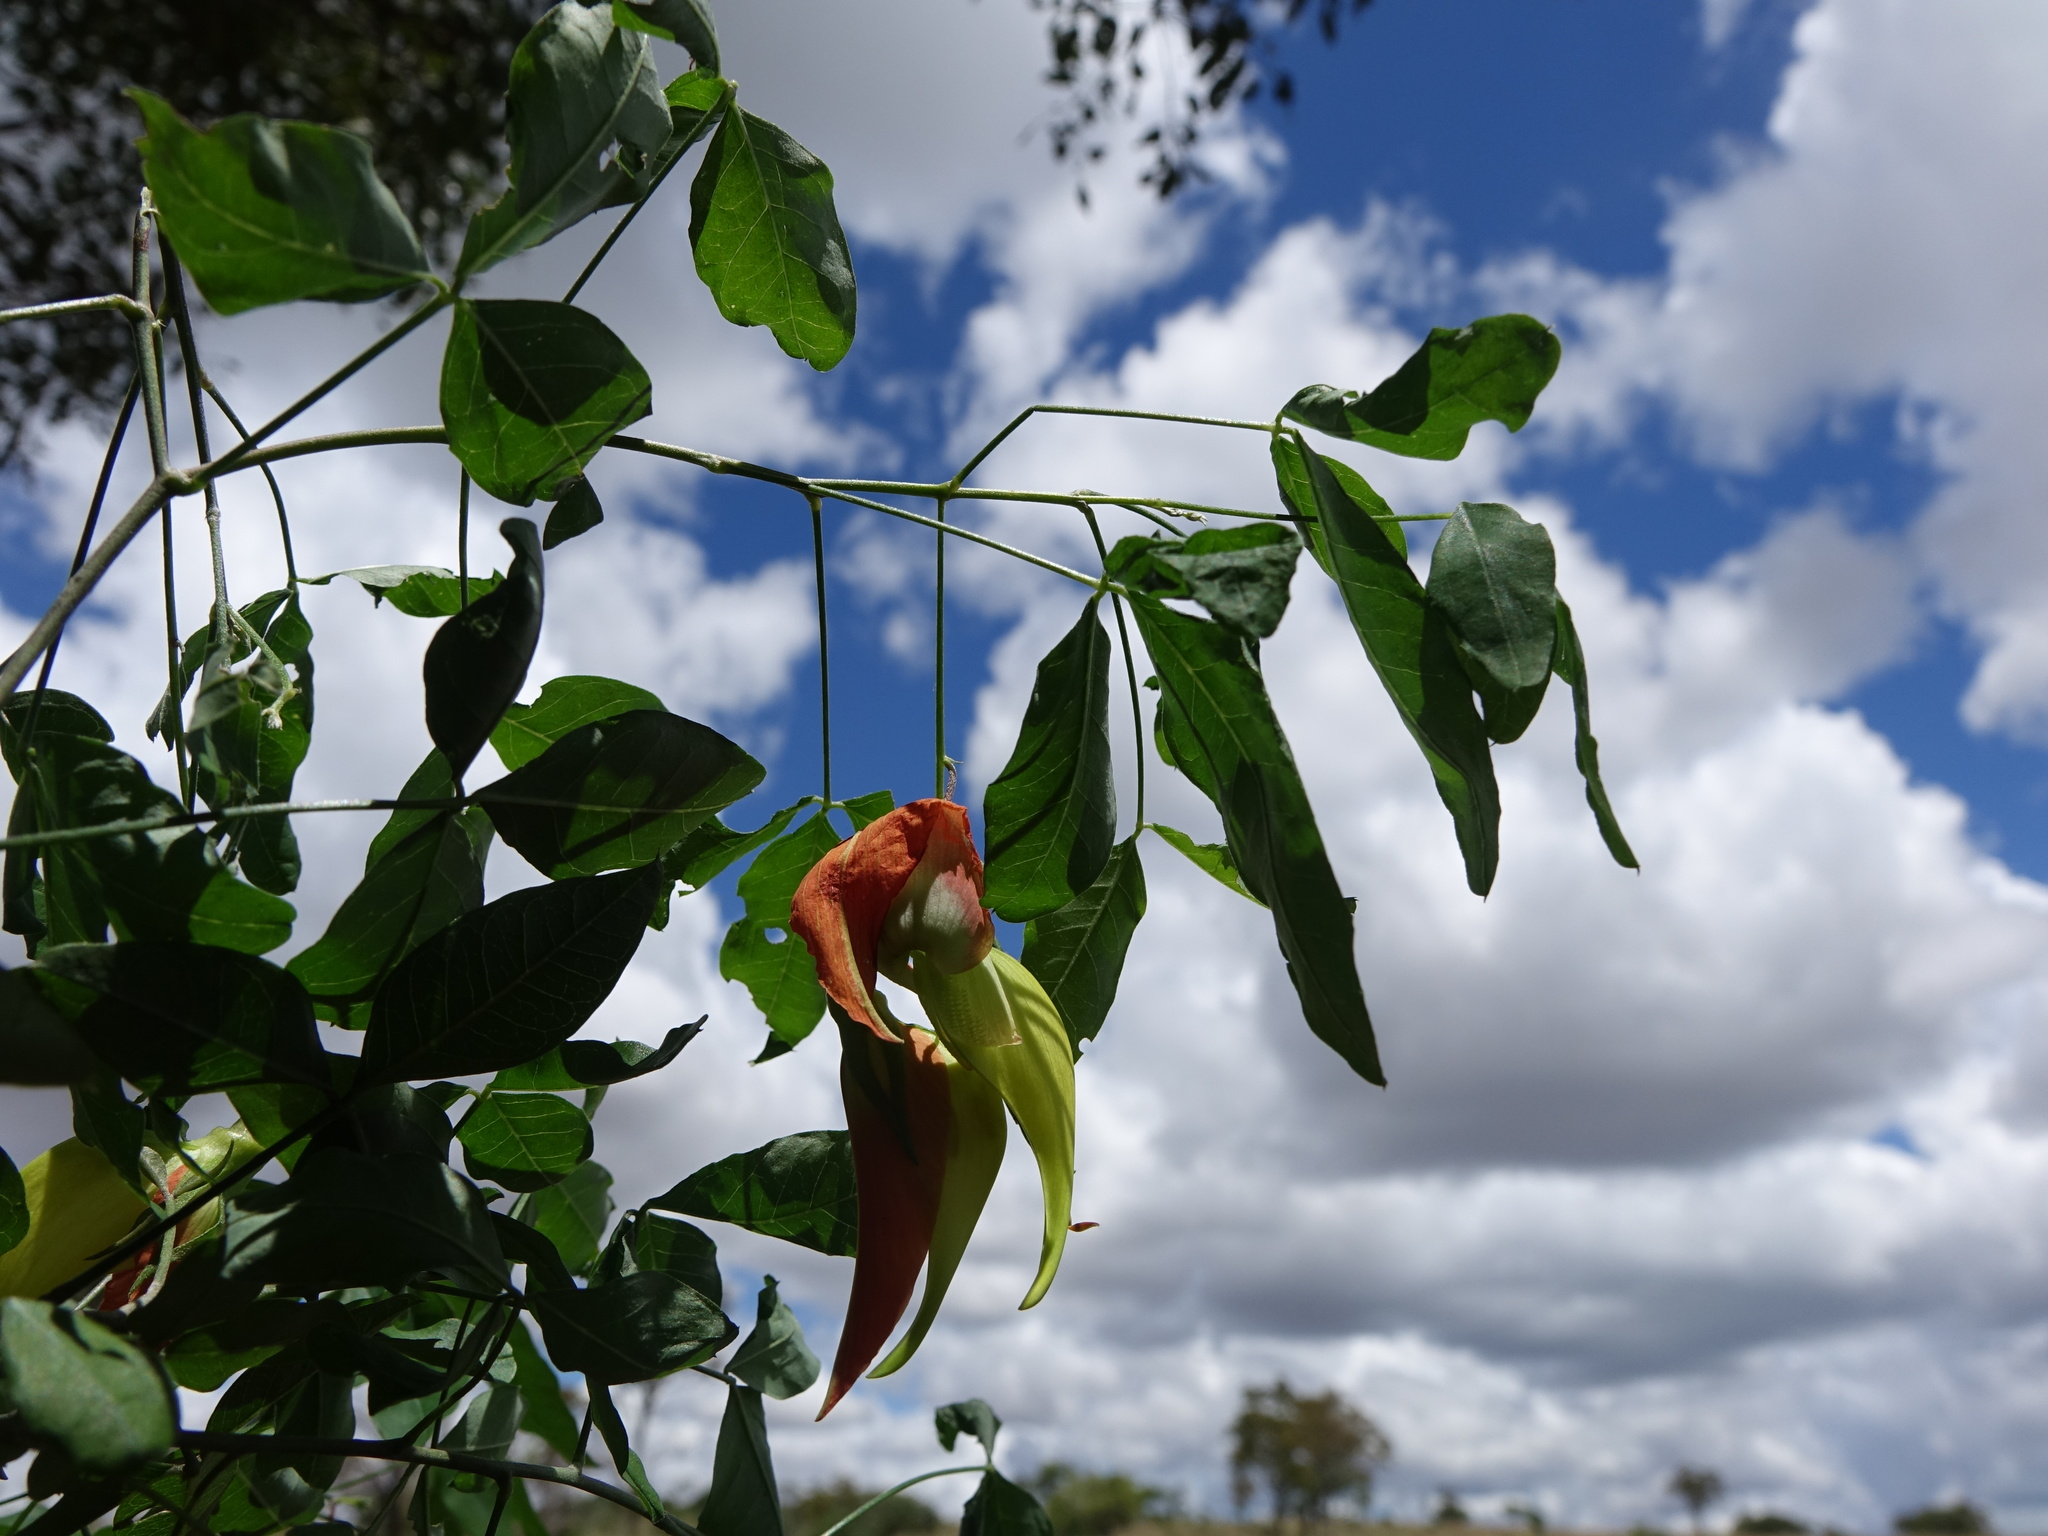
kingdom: Plantae
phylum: Tracheophyta
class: Magnoliopsida
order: Fabales
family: Fabaceae
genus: Crotalaria
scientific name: Crotalaria grevei
